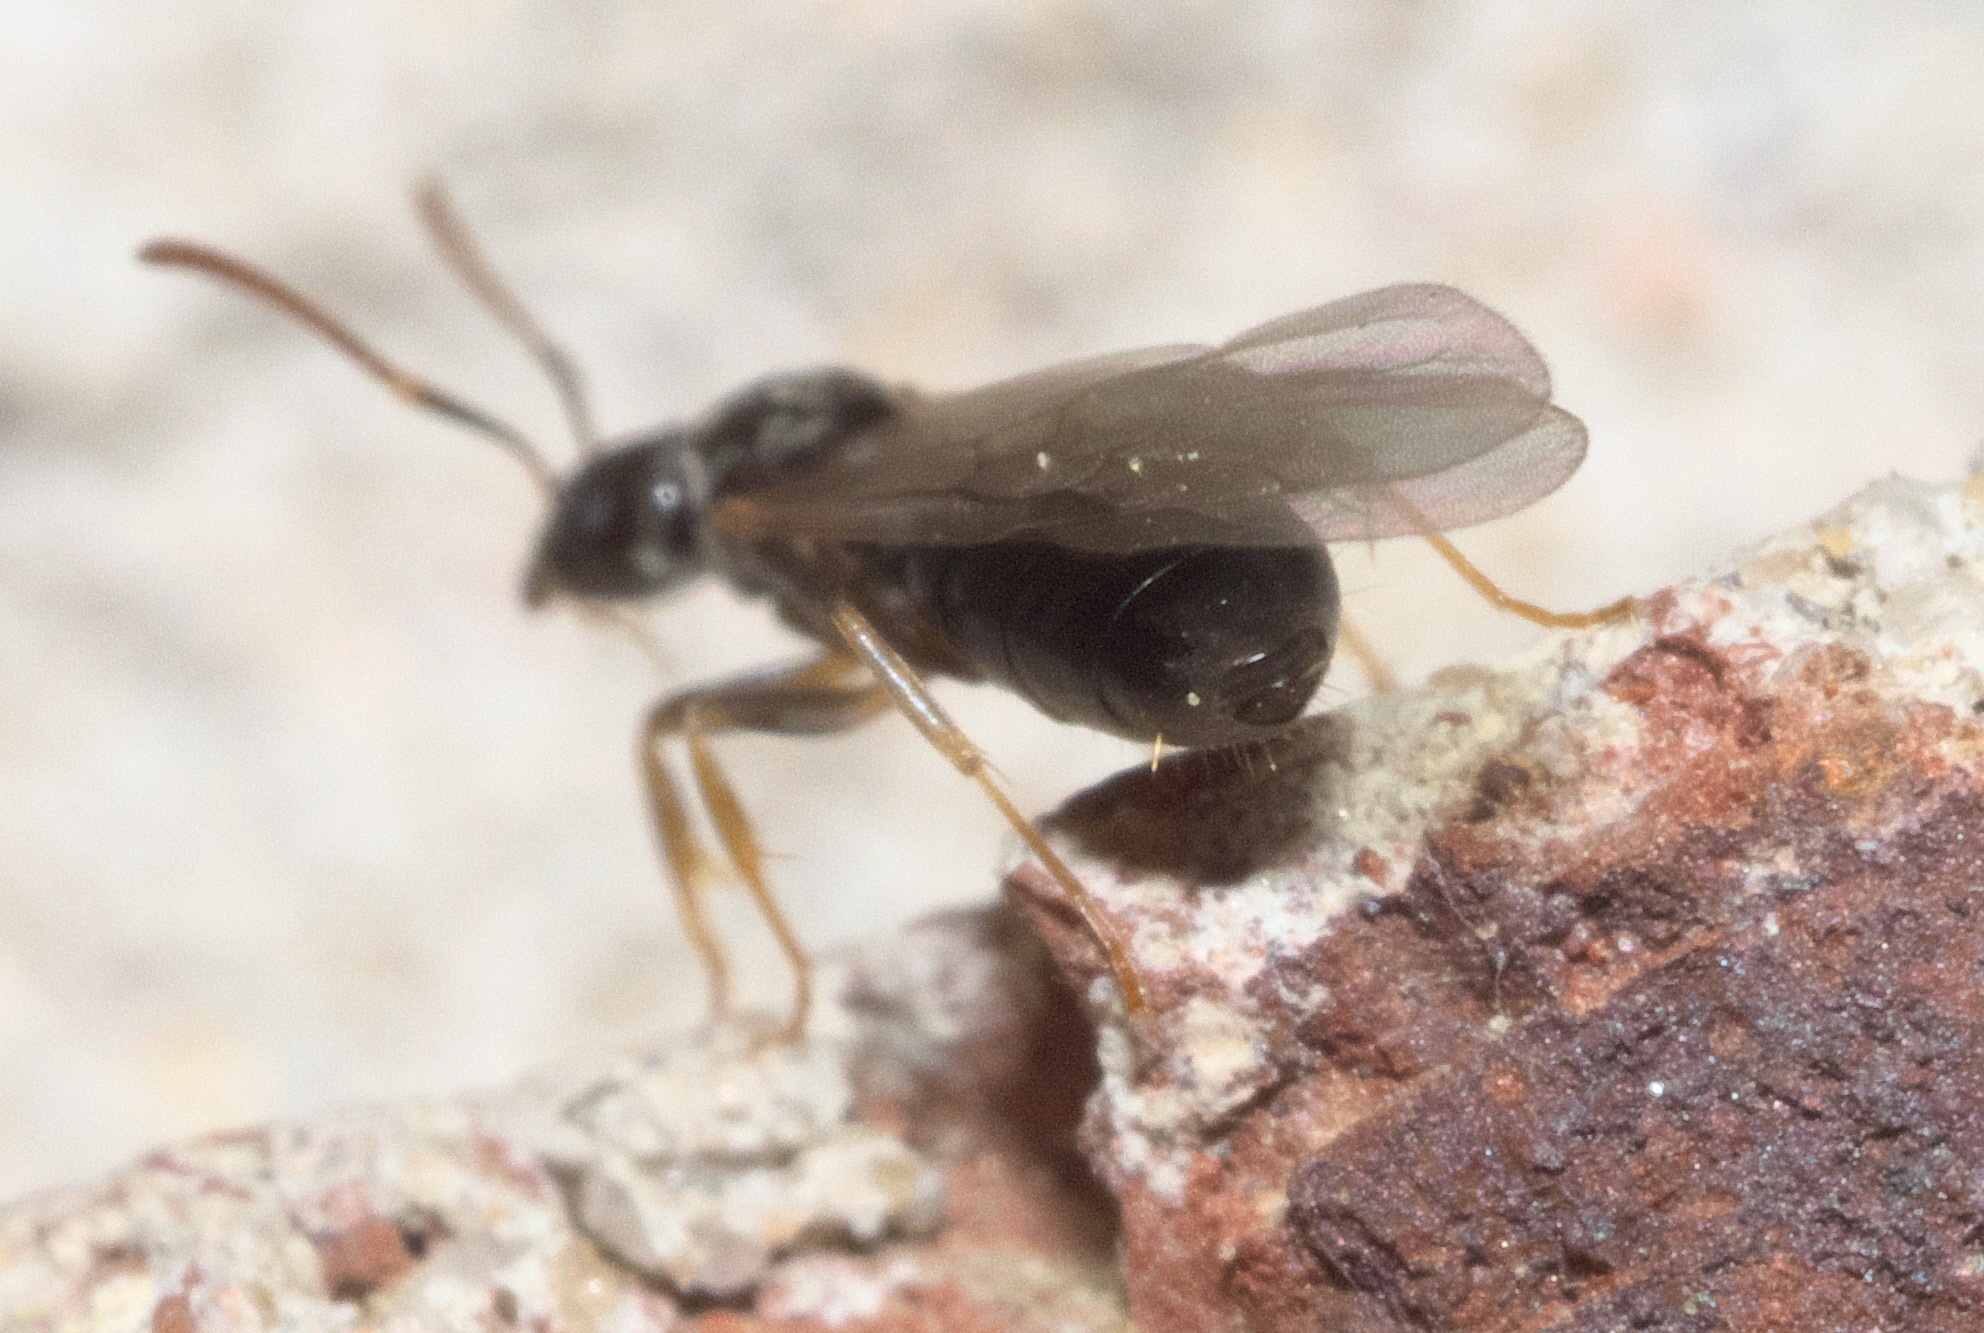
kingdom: Animalia
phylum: Arthropoda
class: Insecta
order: Hymenoptera
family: Formicidae
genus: Tapinoma
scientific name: Tapinoma sessile
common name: Odorous house ant
